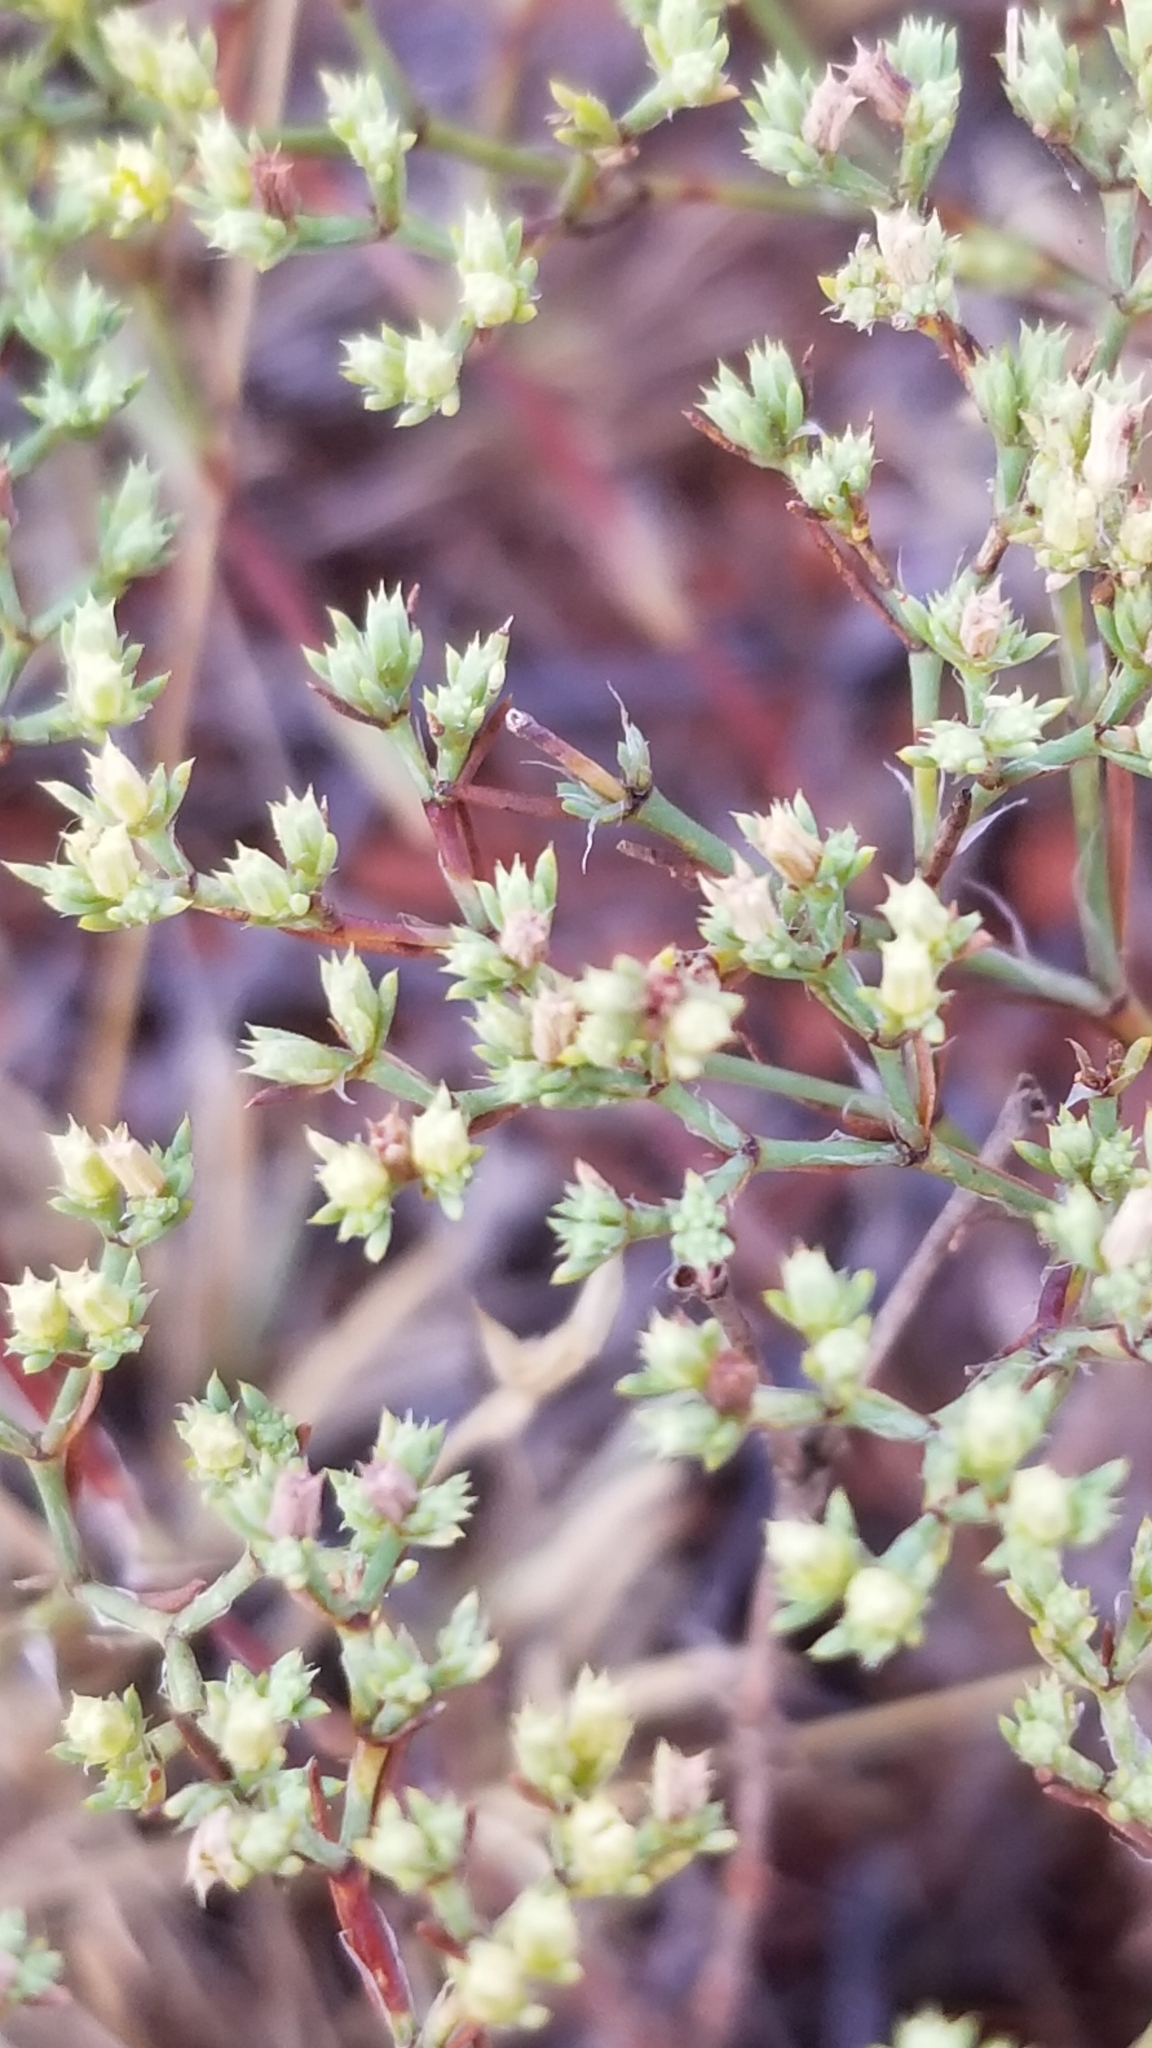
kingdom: Plantae
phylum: Tracheophyta
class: Magnoliopsida
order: Caryophyllales
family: Caryophyllaceae
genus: Paronychia
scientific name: Paronychia jamesii
